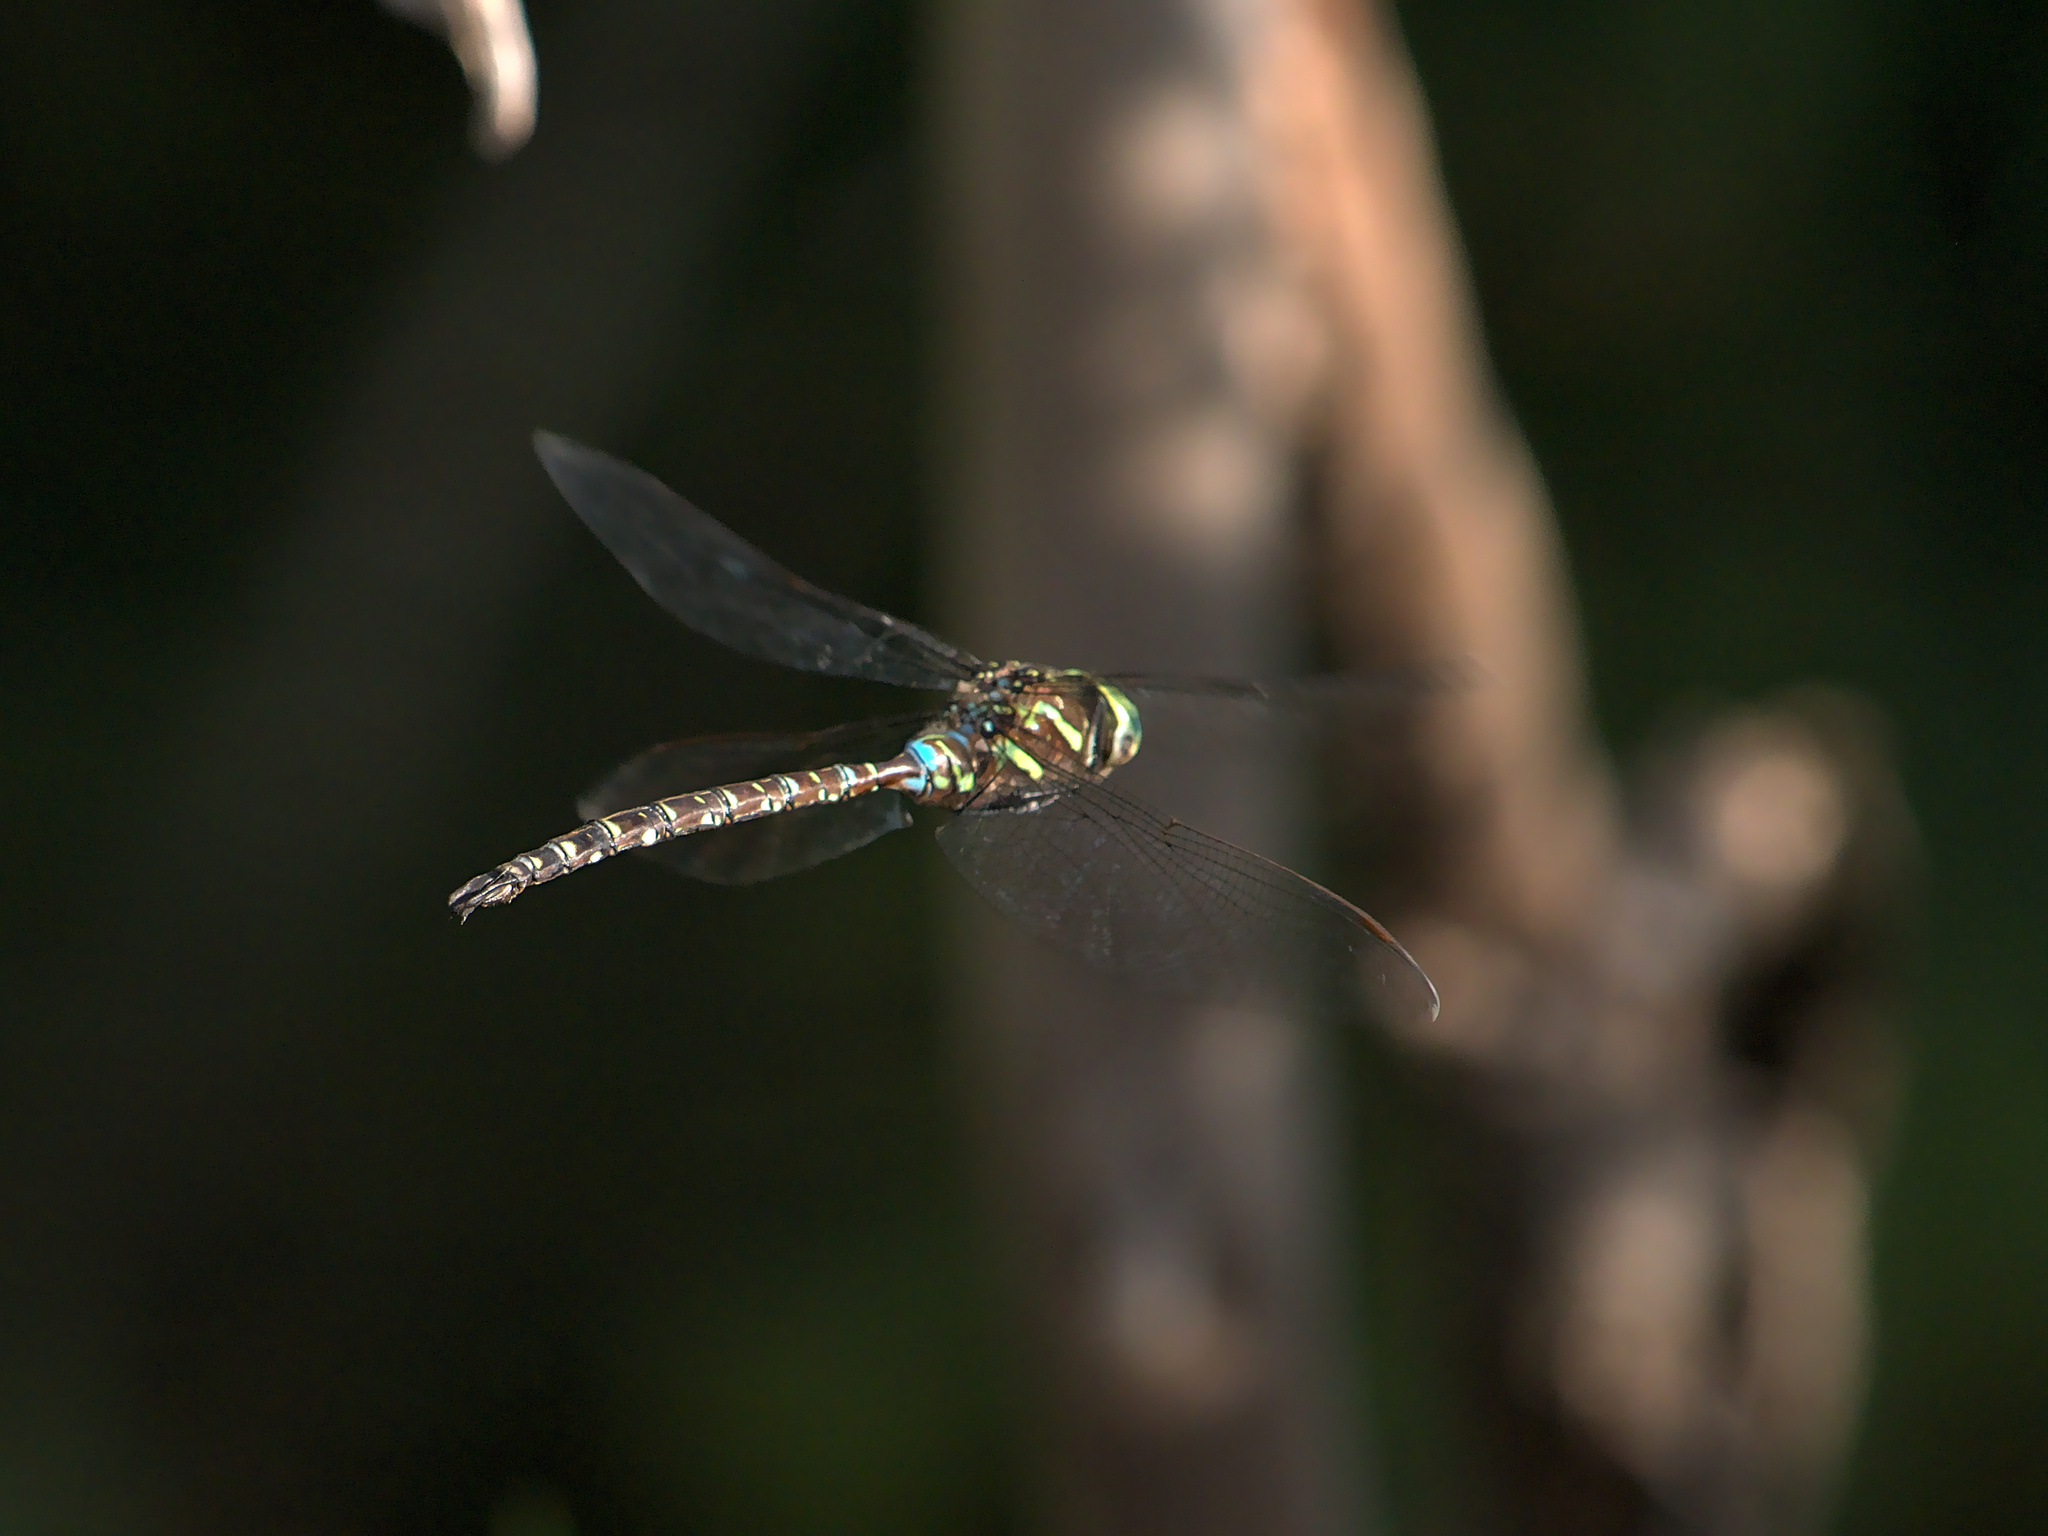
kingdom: Animalia
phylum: Arthropoda
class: Insecta
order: Odonata
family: Aeshnidae
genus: Aeshna
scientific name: Aeshna umbrosa
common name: Shadow darner
